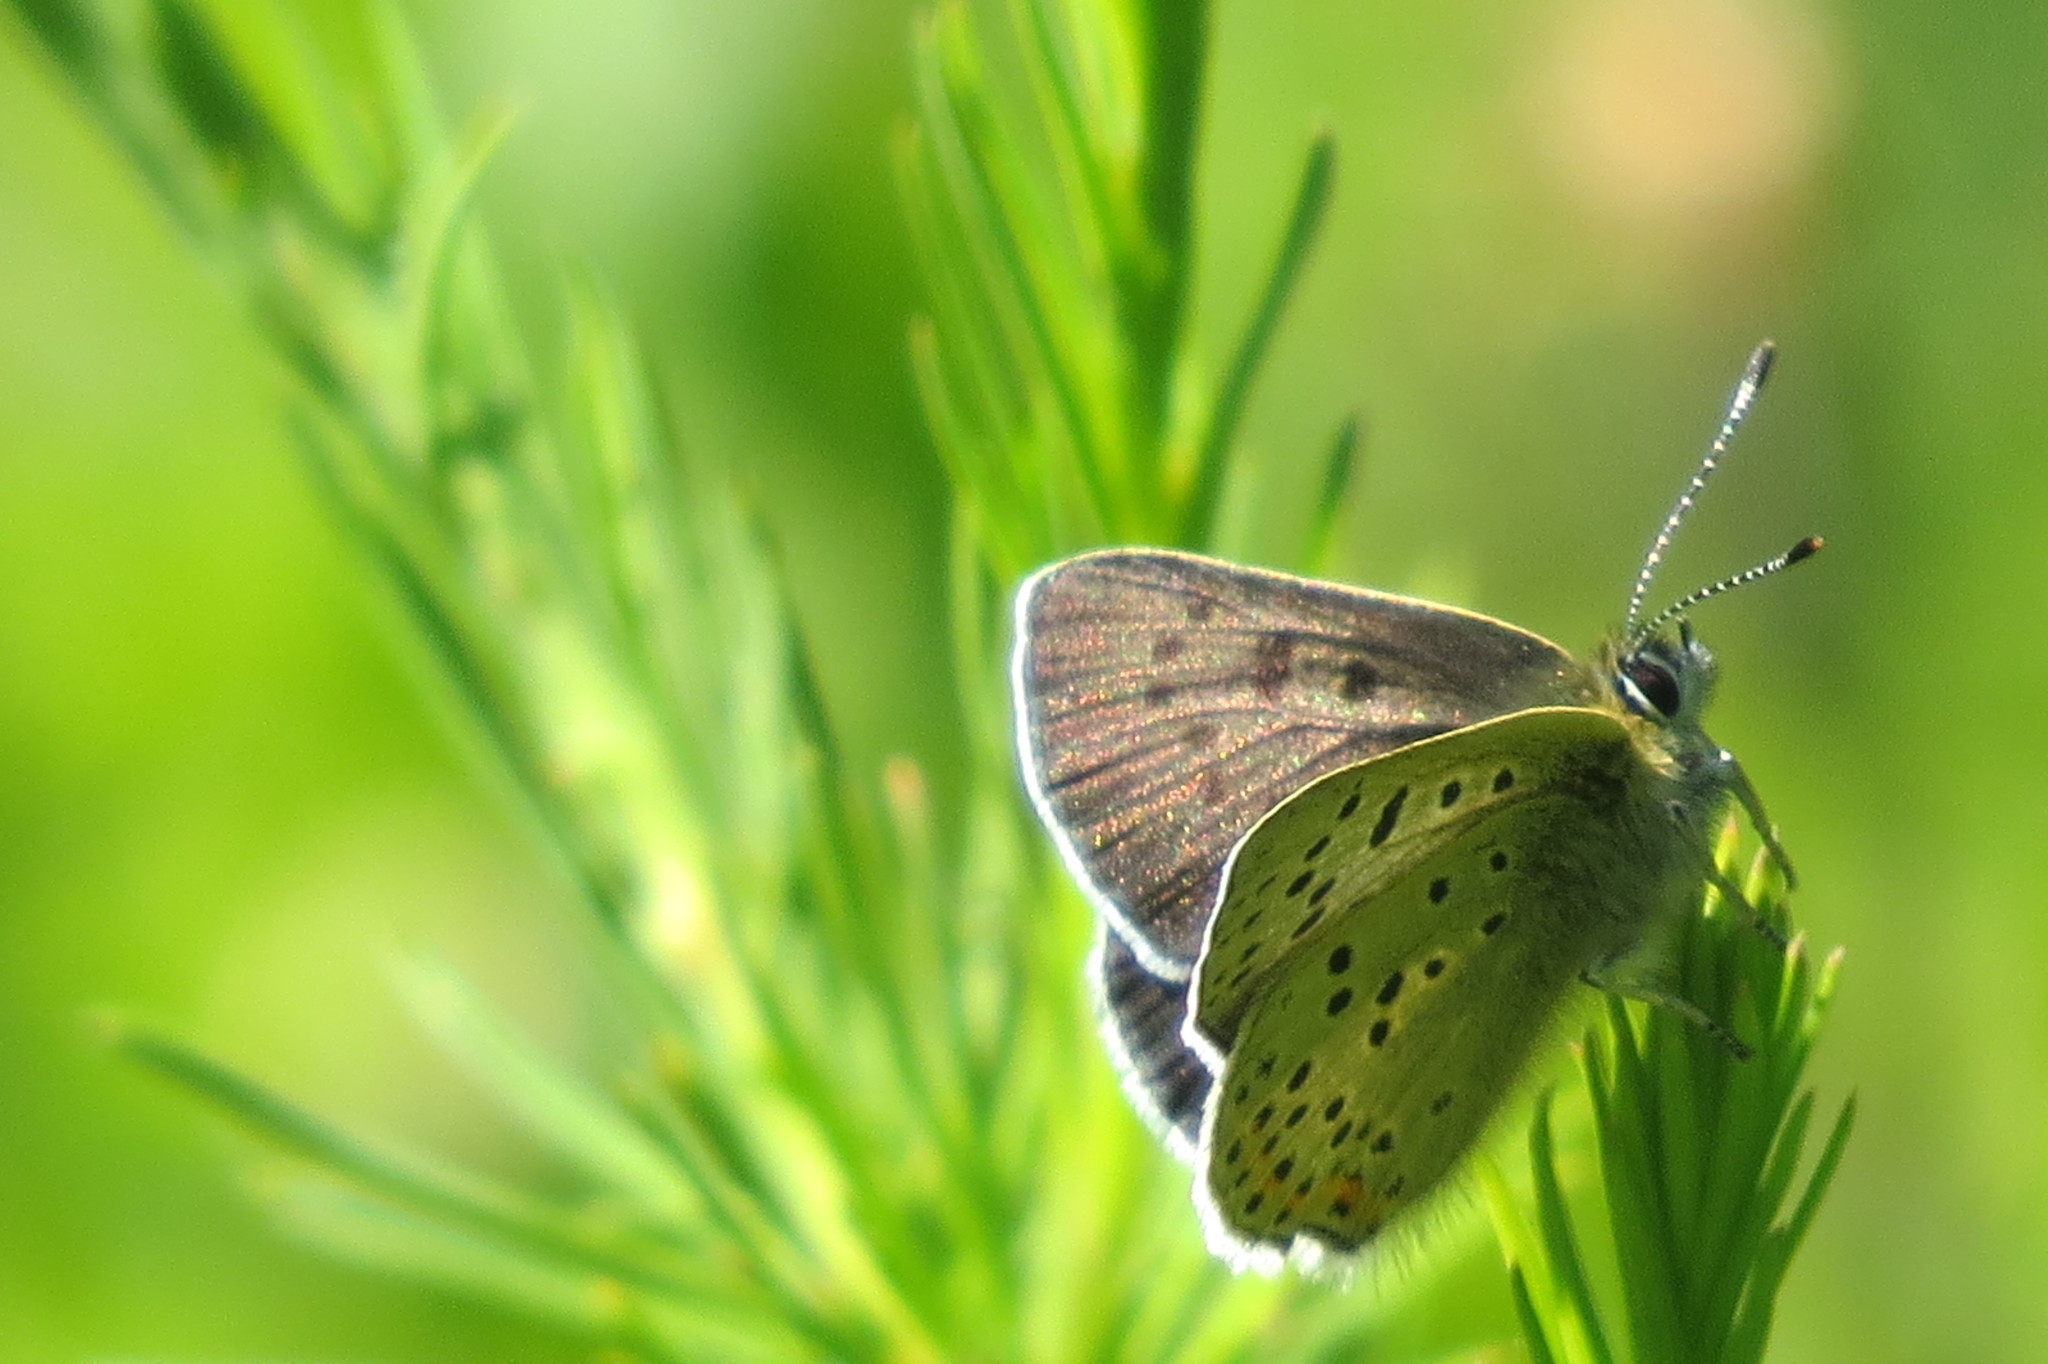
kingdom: Animalia
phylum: Arthropoda
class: Insecta
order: Lepidoptera
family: Lycaenidae
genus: Loweia
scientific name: Loweia tityrus
